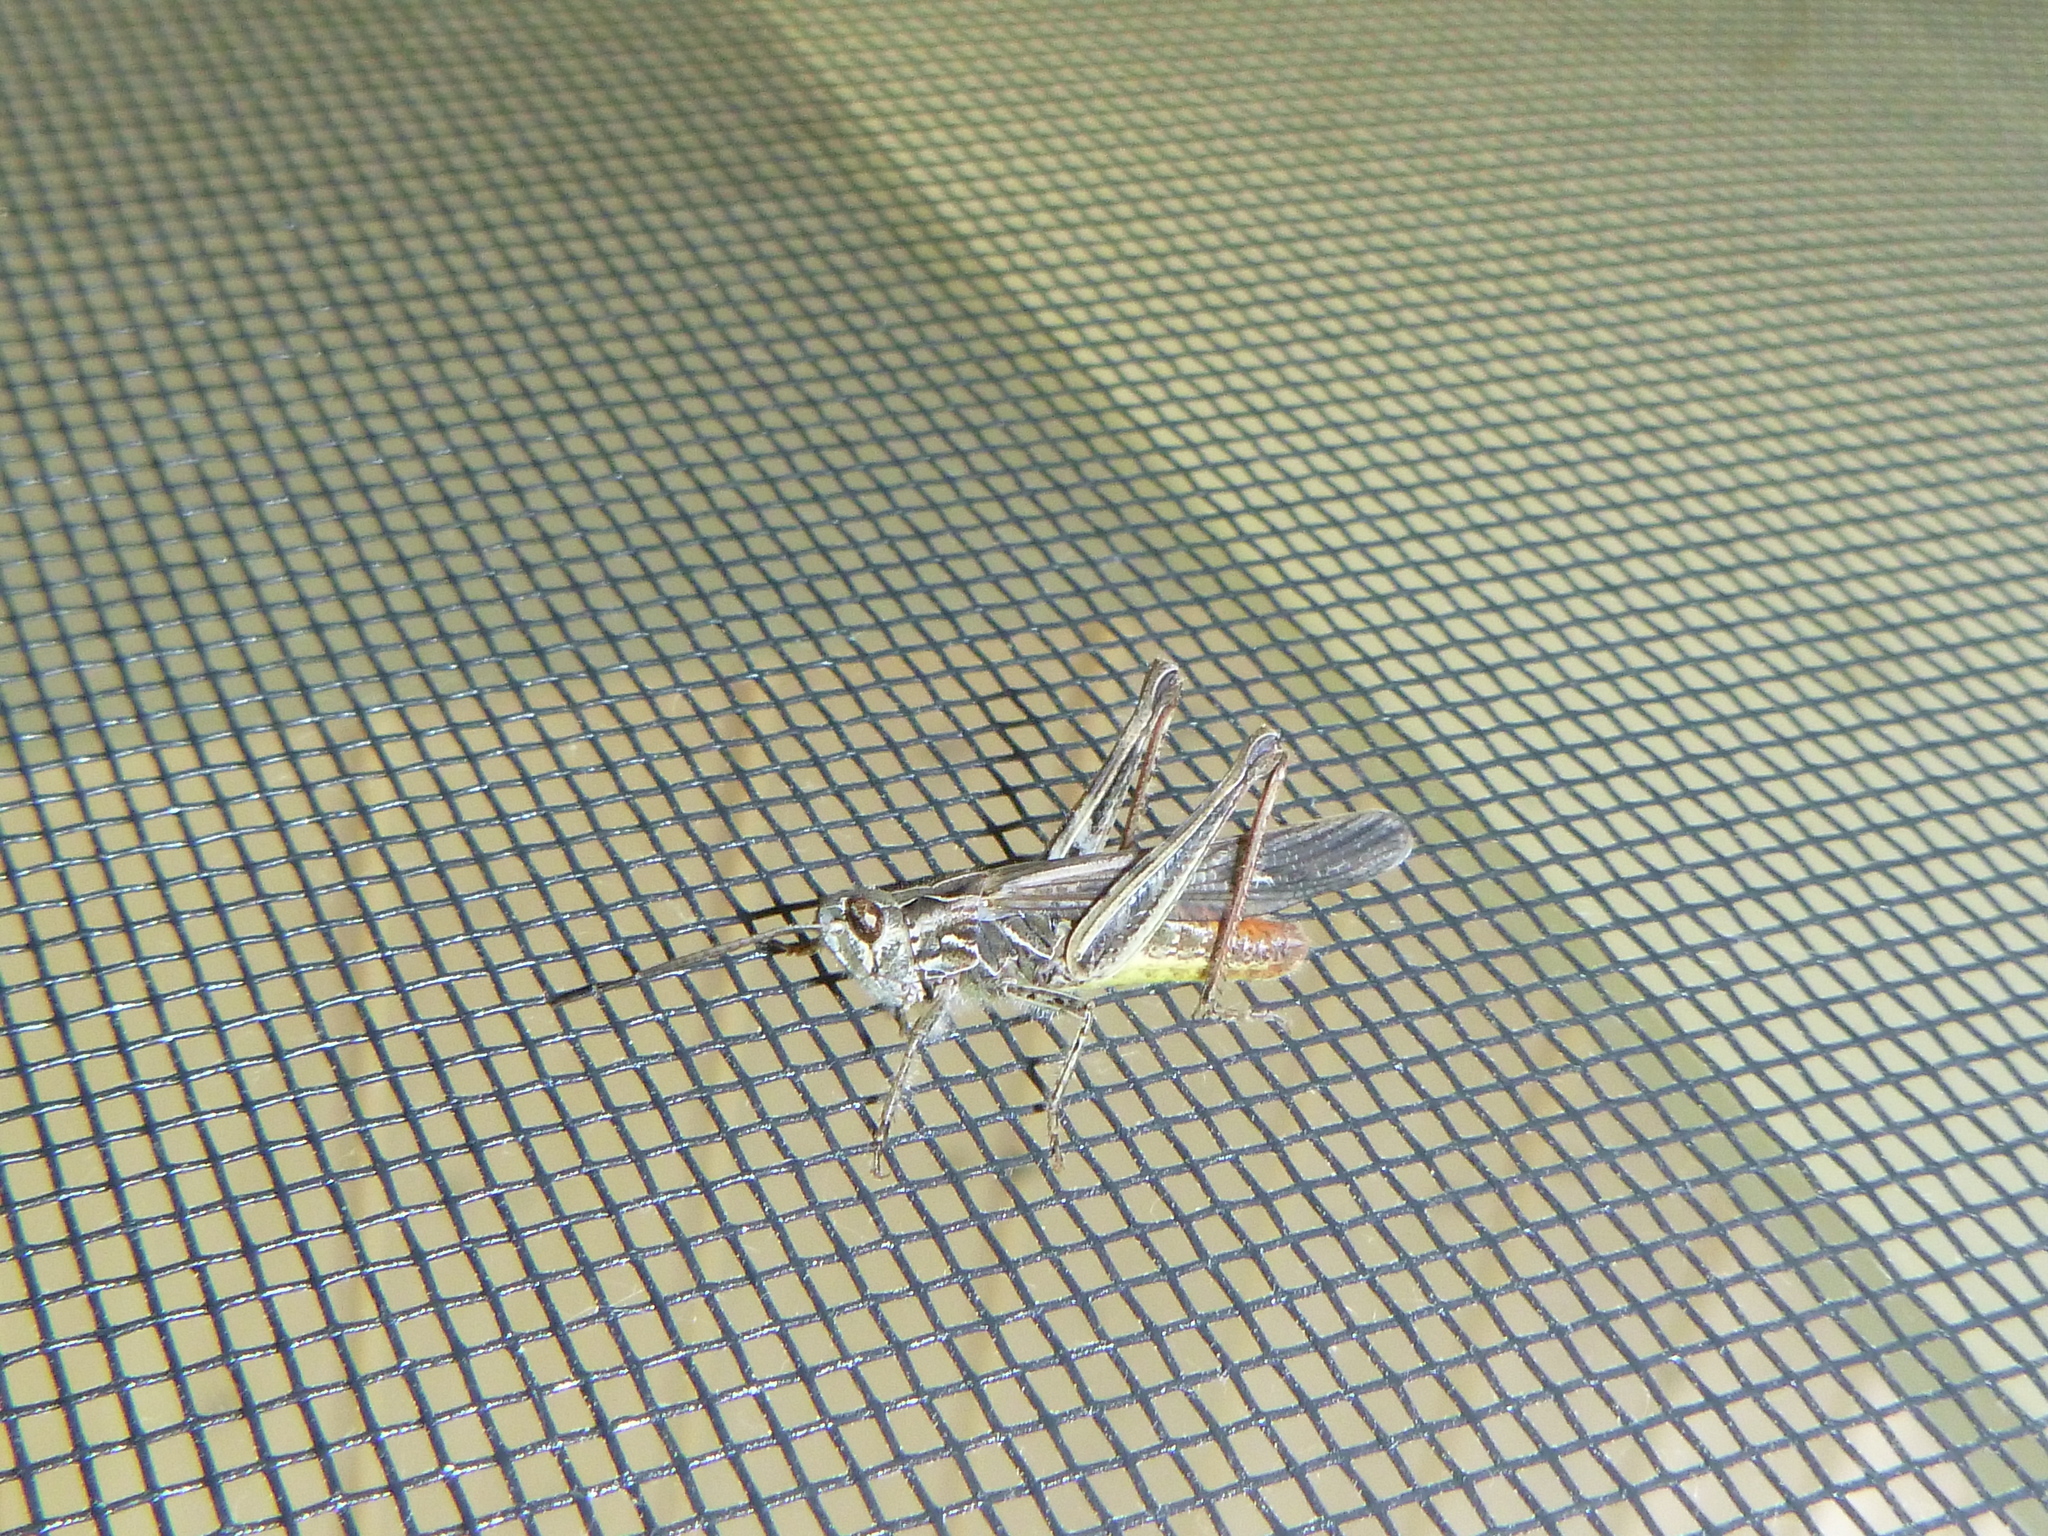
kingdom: Animalia
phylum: Arthropoda
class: Insecta
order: Orthoptera
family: Acrididae
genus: Chorthippus
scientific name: Chorthippus brunneus
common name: Field grasshopper
